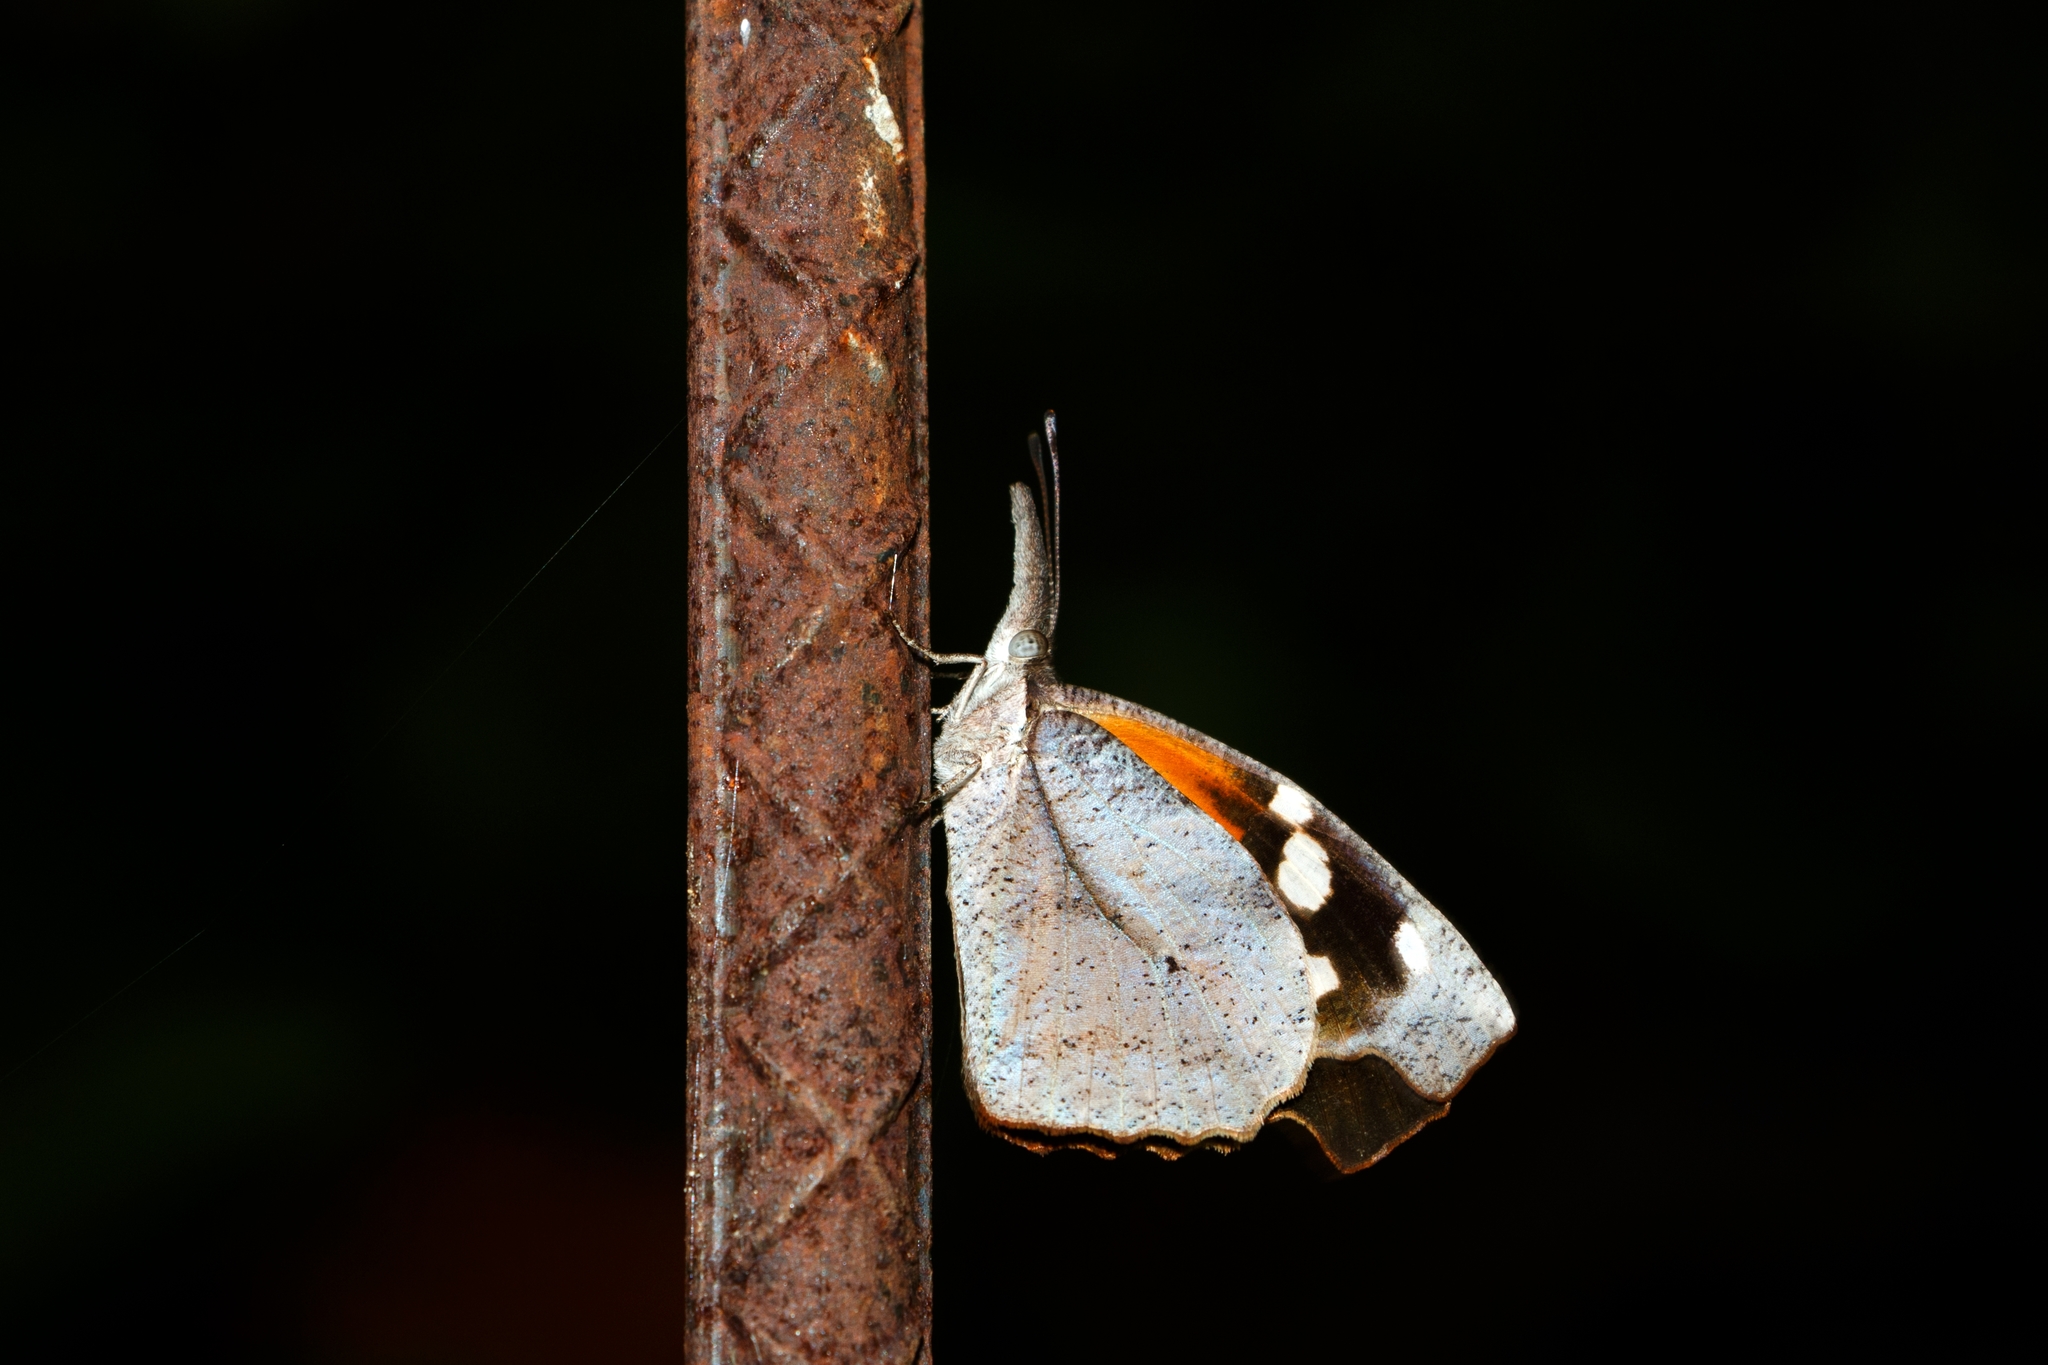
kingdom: Animalia
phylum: Arthropoda
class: Insecta
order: Lepidoptera
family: Nymphalidae
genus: Libytheana
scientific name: Libytheana carinenta
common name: American snout
